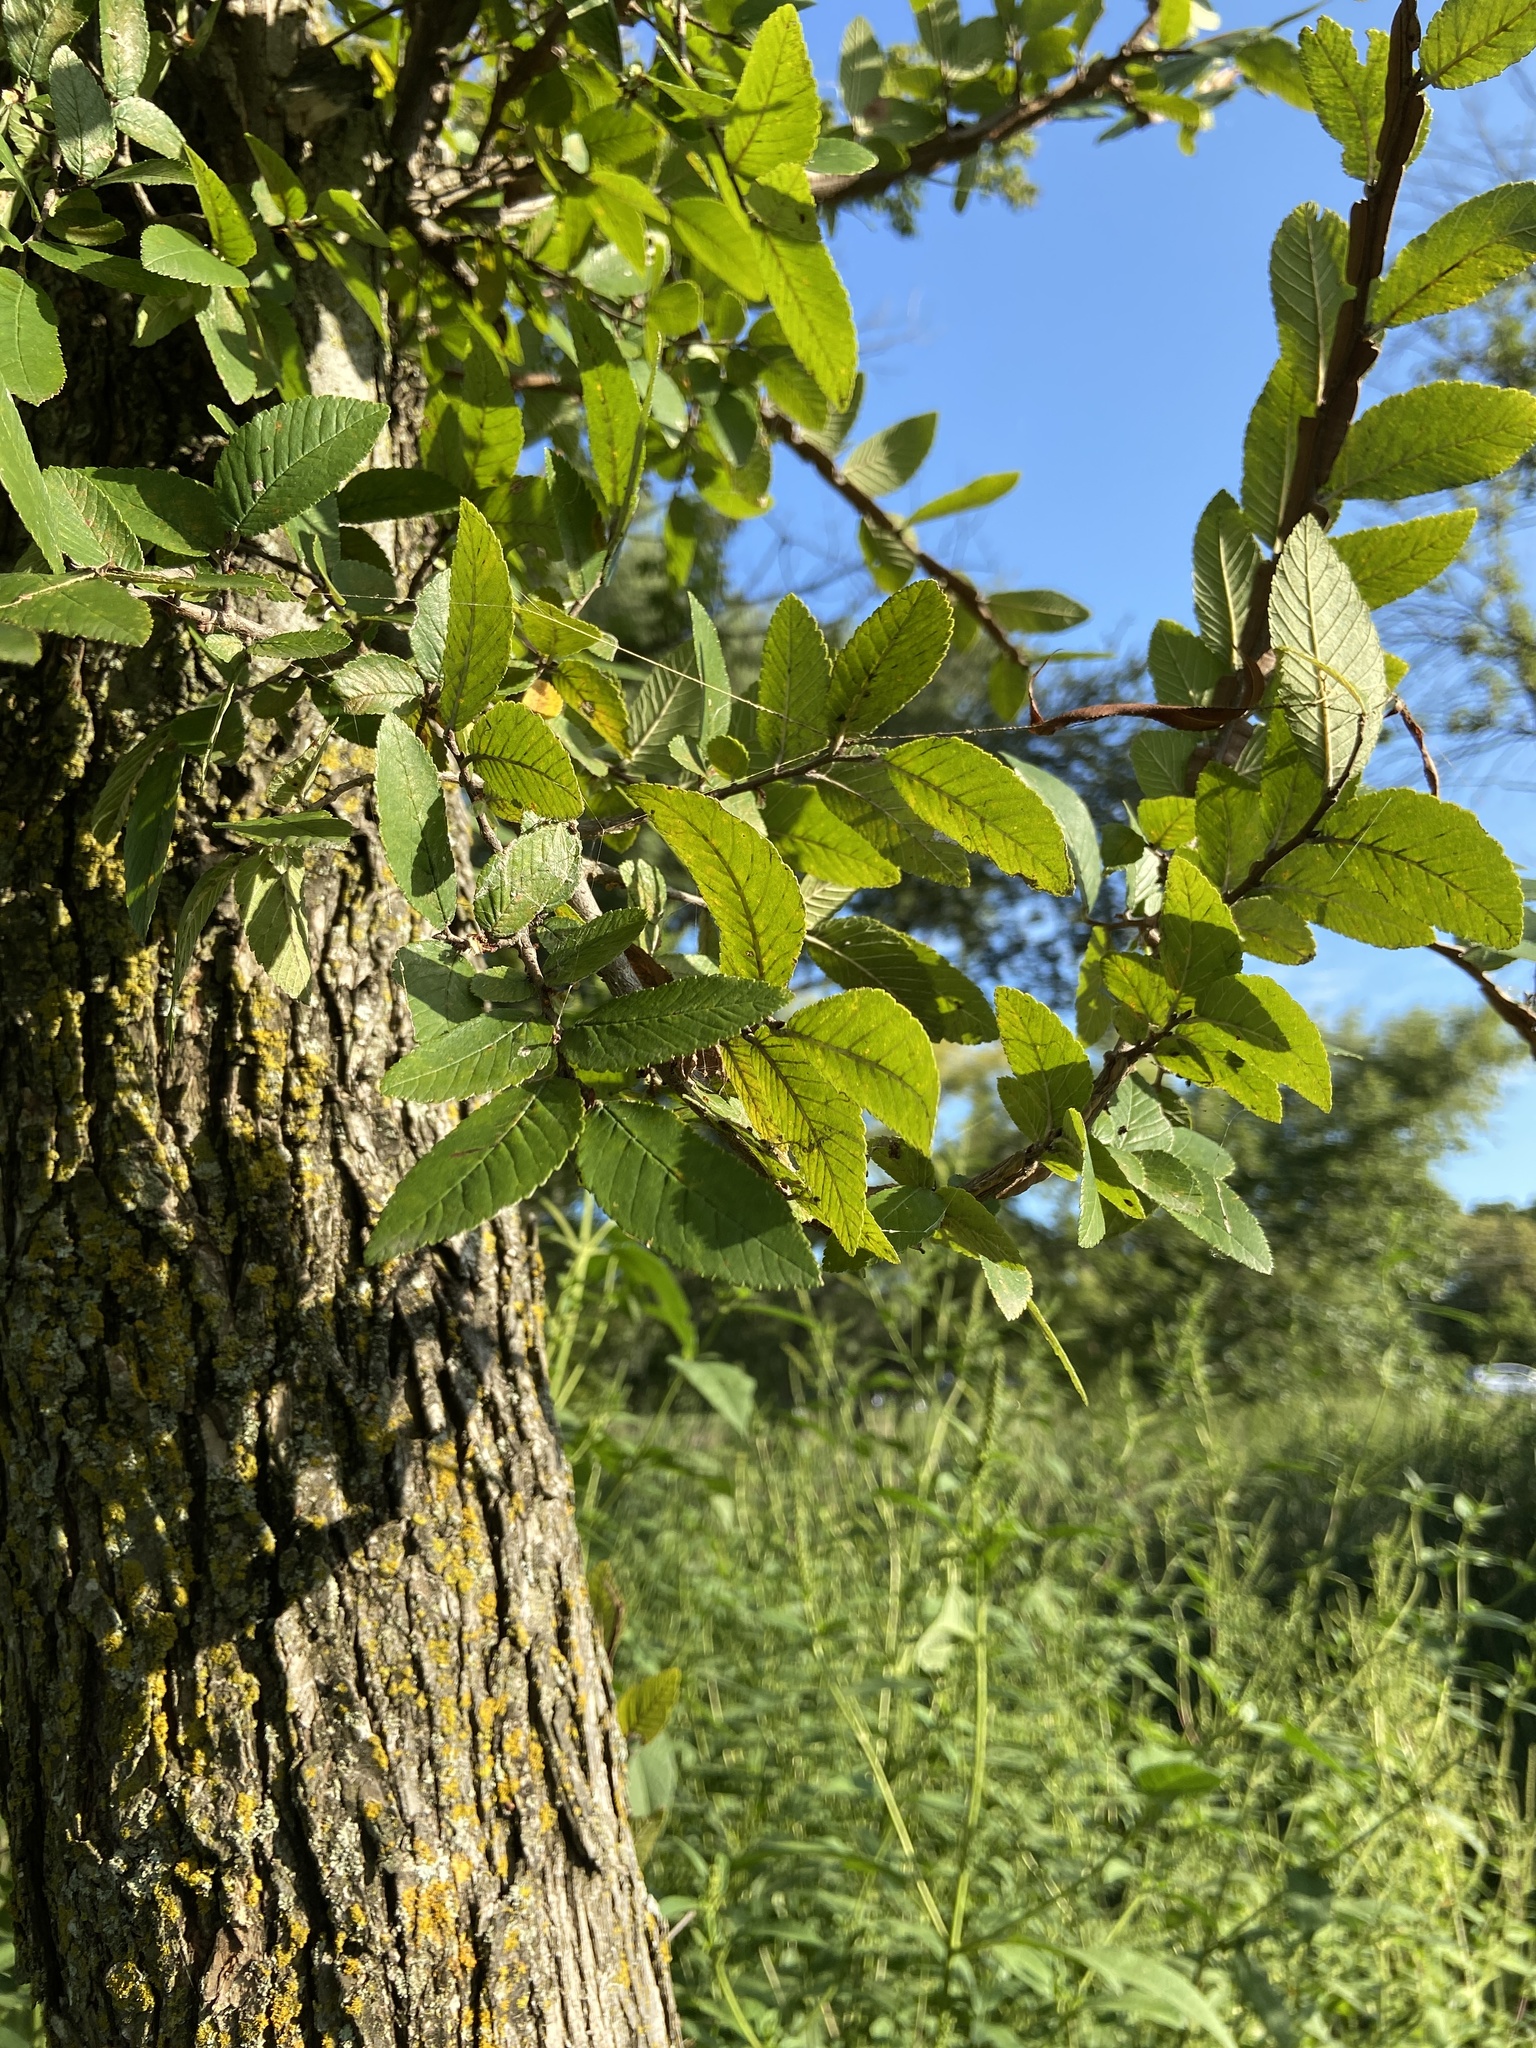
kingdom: Plantae
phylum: Tracheophyta
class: Magnoliopsida
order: Rosales
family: Ulmaceae
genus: Ulmus
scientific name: Ulmus crassifolia
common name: Basket elm
